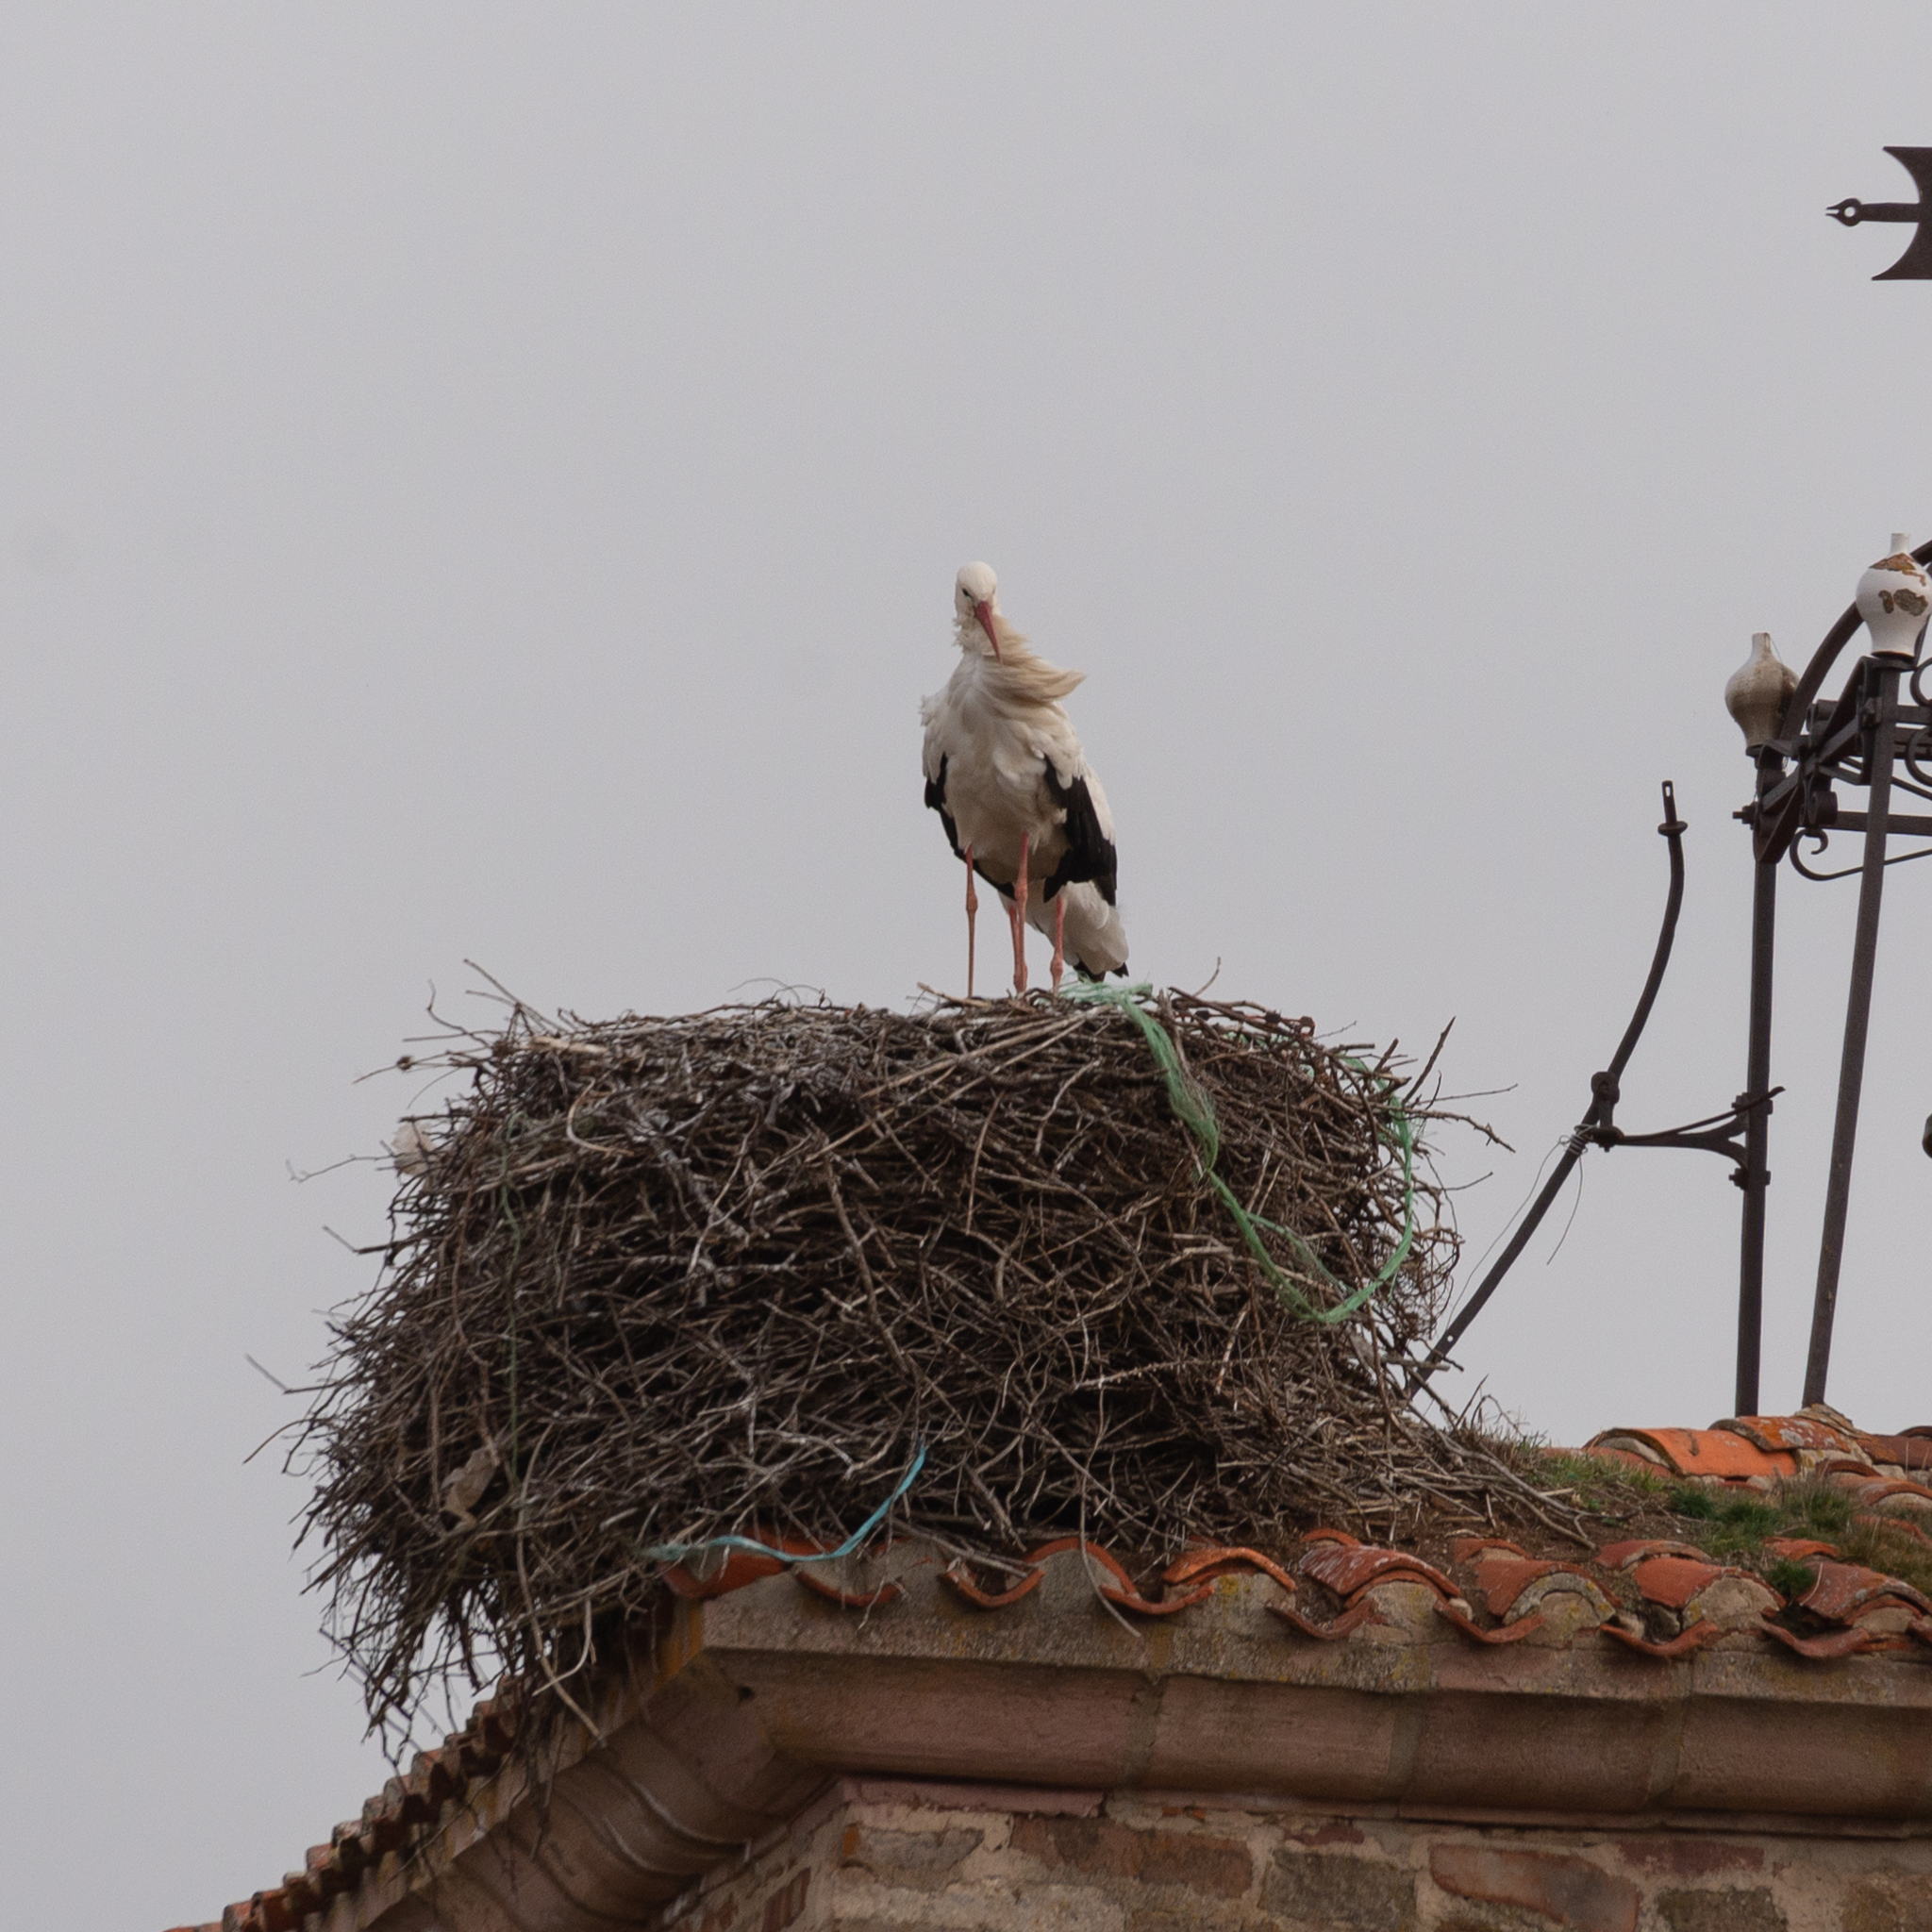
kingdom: Animalia
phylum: Chordata
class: Aves
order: Ciconiiformes
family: Ciconiidae
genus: Ciconia
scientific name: Ciconia ciconia
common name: White stork
